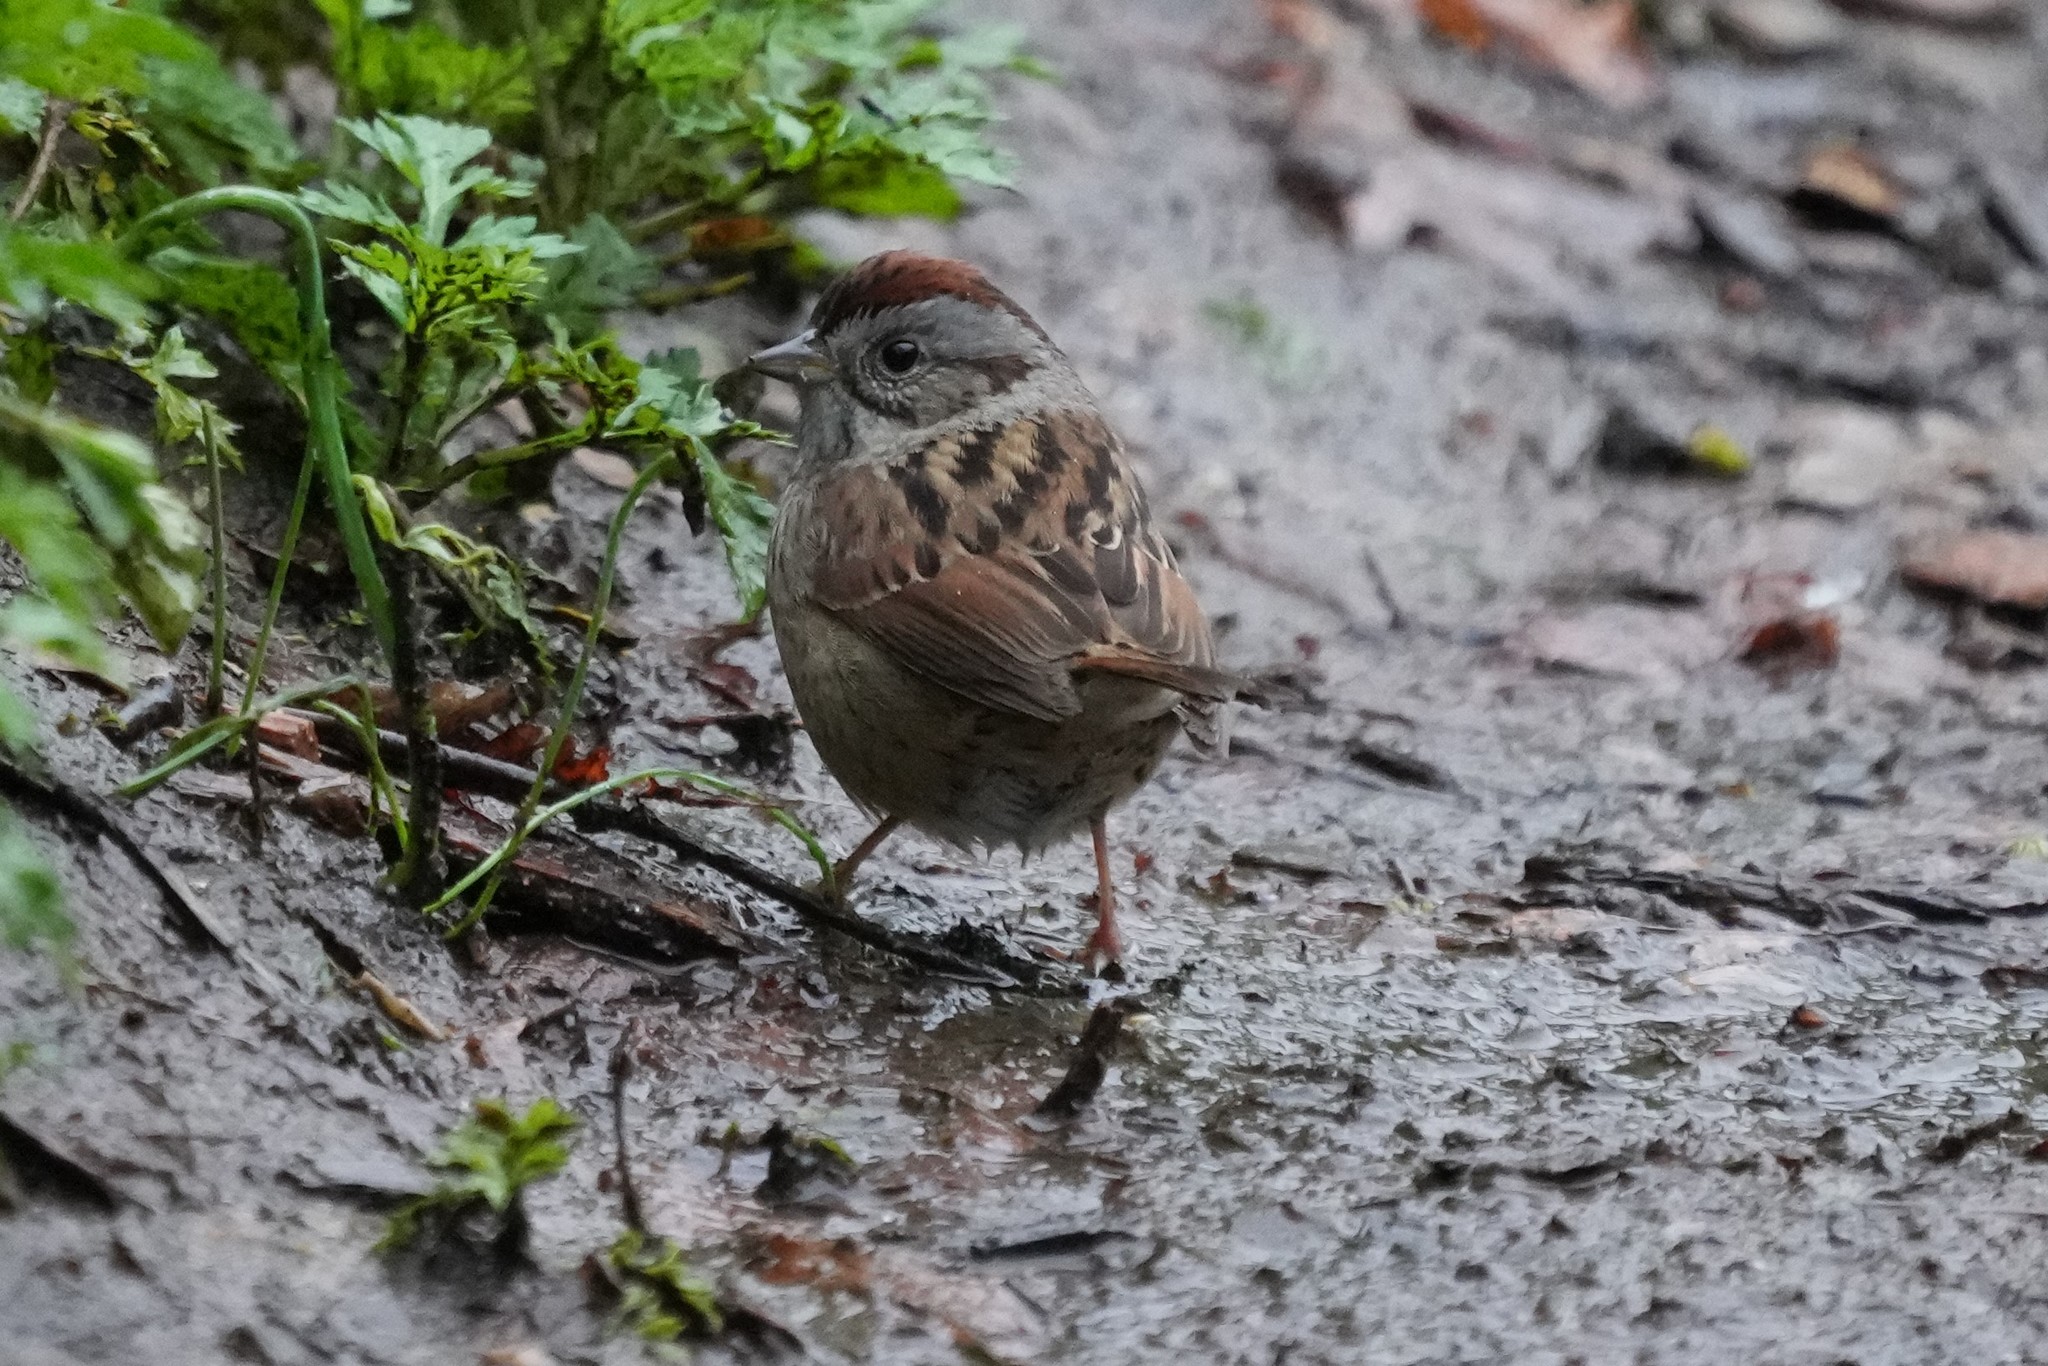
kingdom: Animalia
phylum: Chordata
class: Aves
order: Passeriformes
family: Passerellidae
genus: Melospiza
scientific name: Melospiza georgiana
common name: Swamp sparrow
